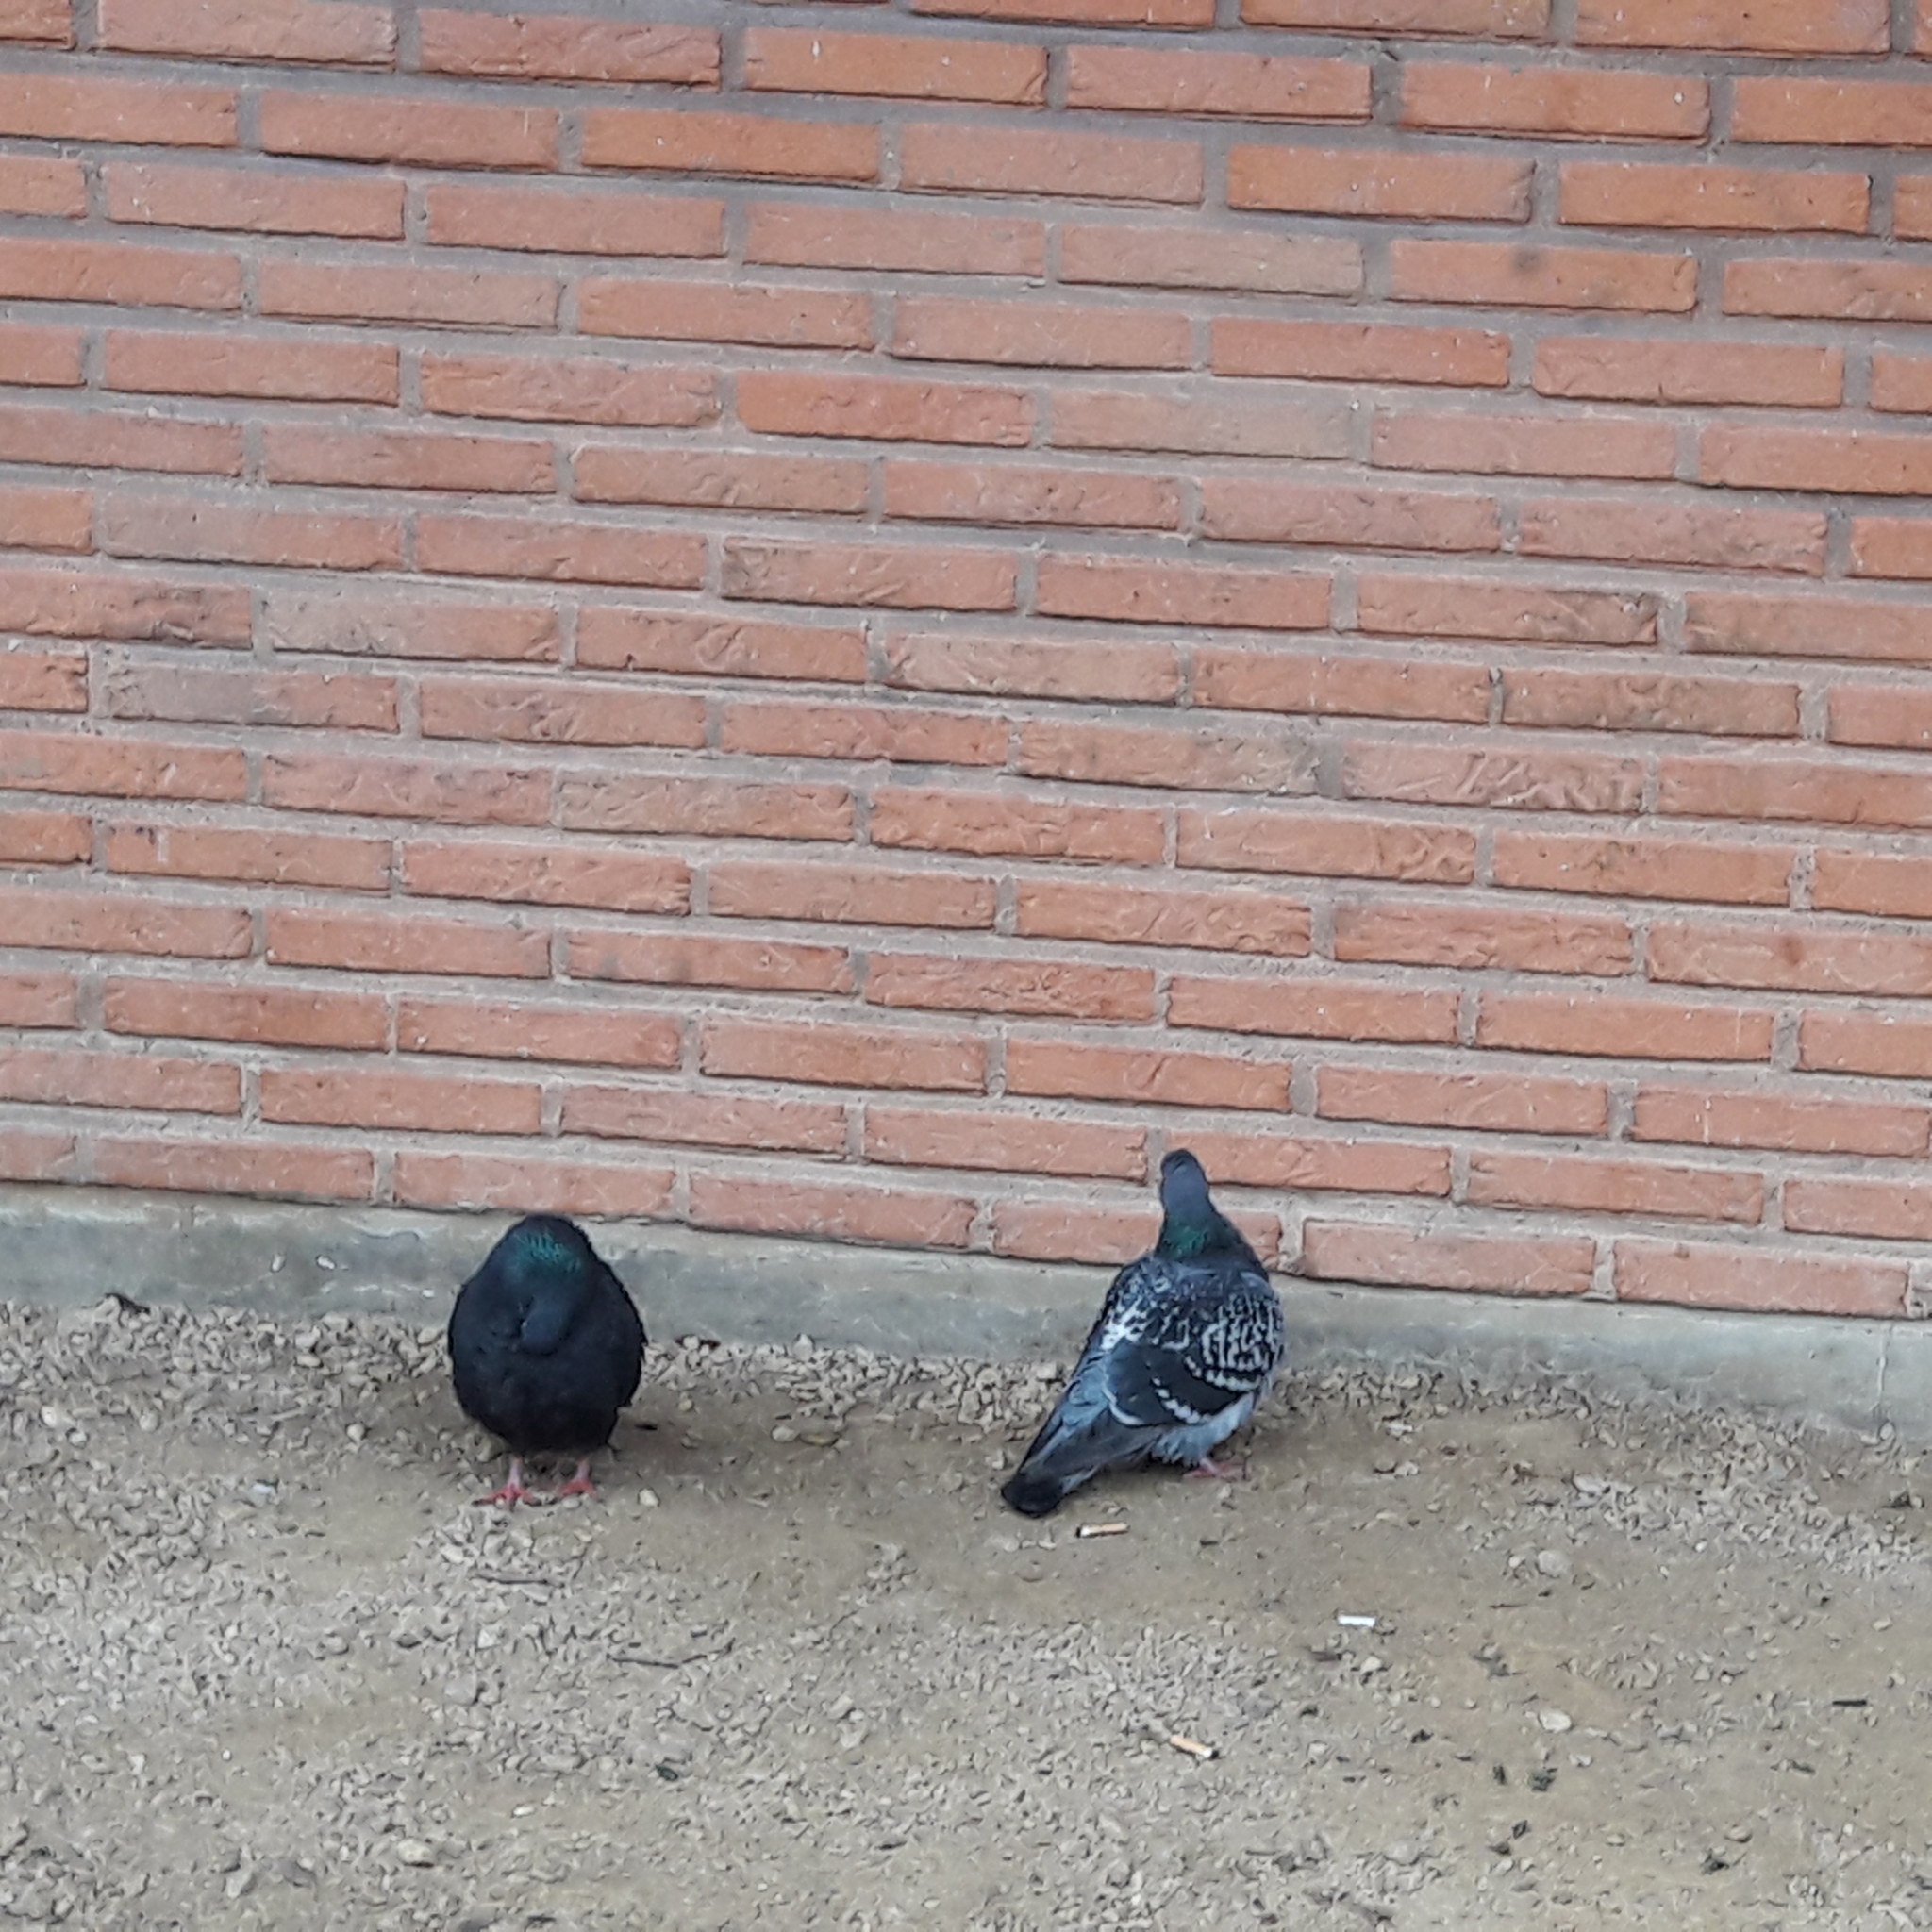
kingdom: Animalia
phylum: Chordata
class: Aves
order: Columbiformes
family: Columbidae
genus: Columba
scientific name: Columba livia
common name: Rock pigeon
